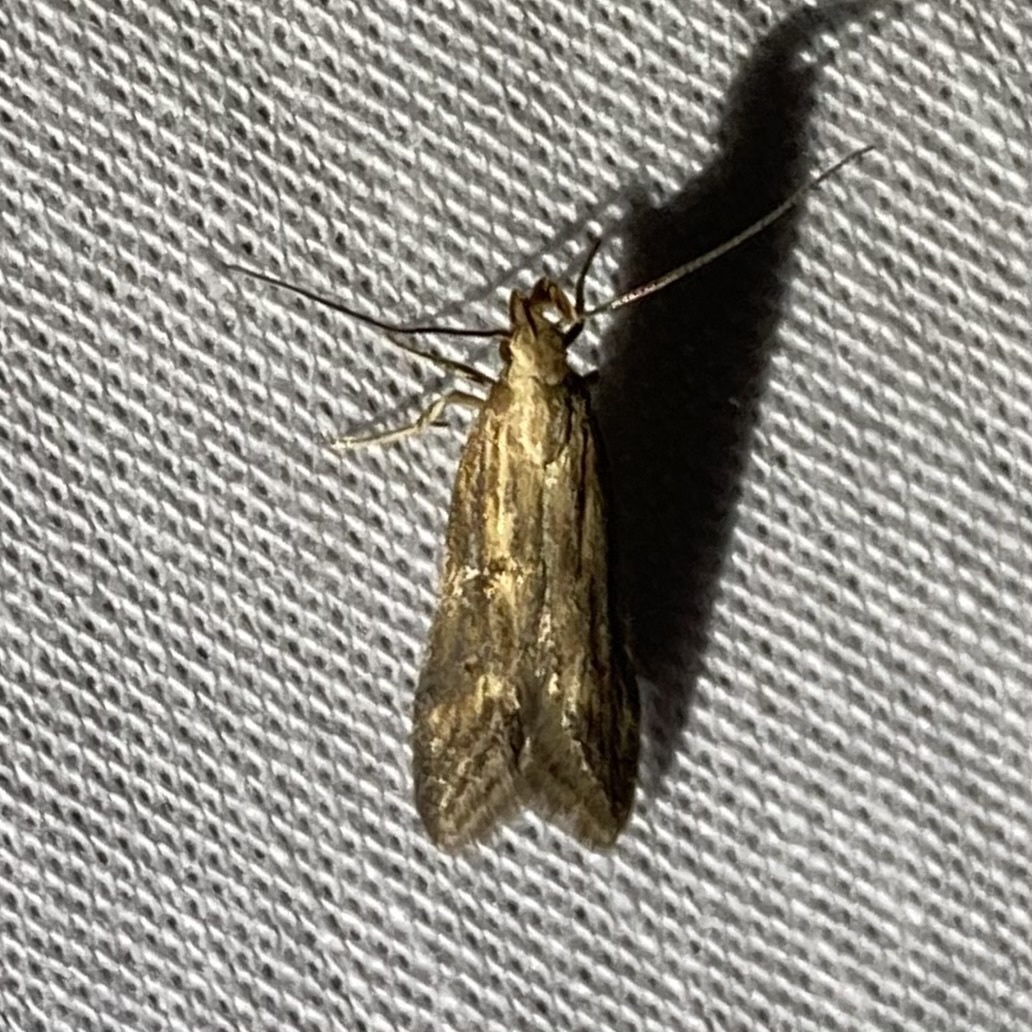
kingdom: Animalia
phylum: Arthropoda
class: Insecta
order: Lepidoptera
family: Gelechiidae
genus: Metzneria
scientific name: Metzneria lappella
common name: Burdock neb
